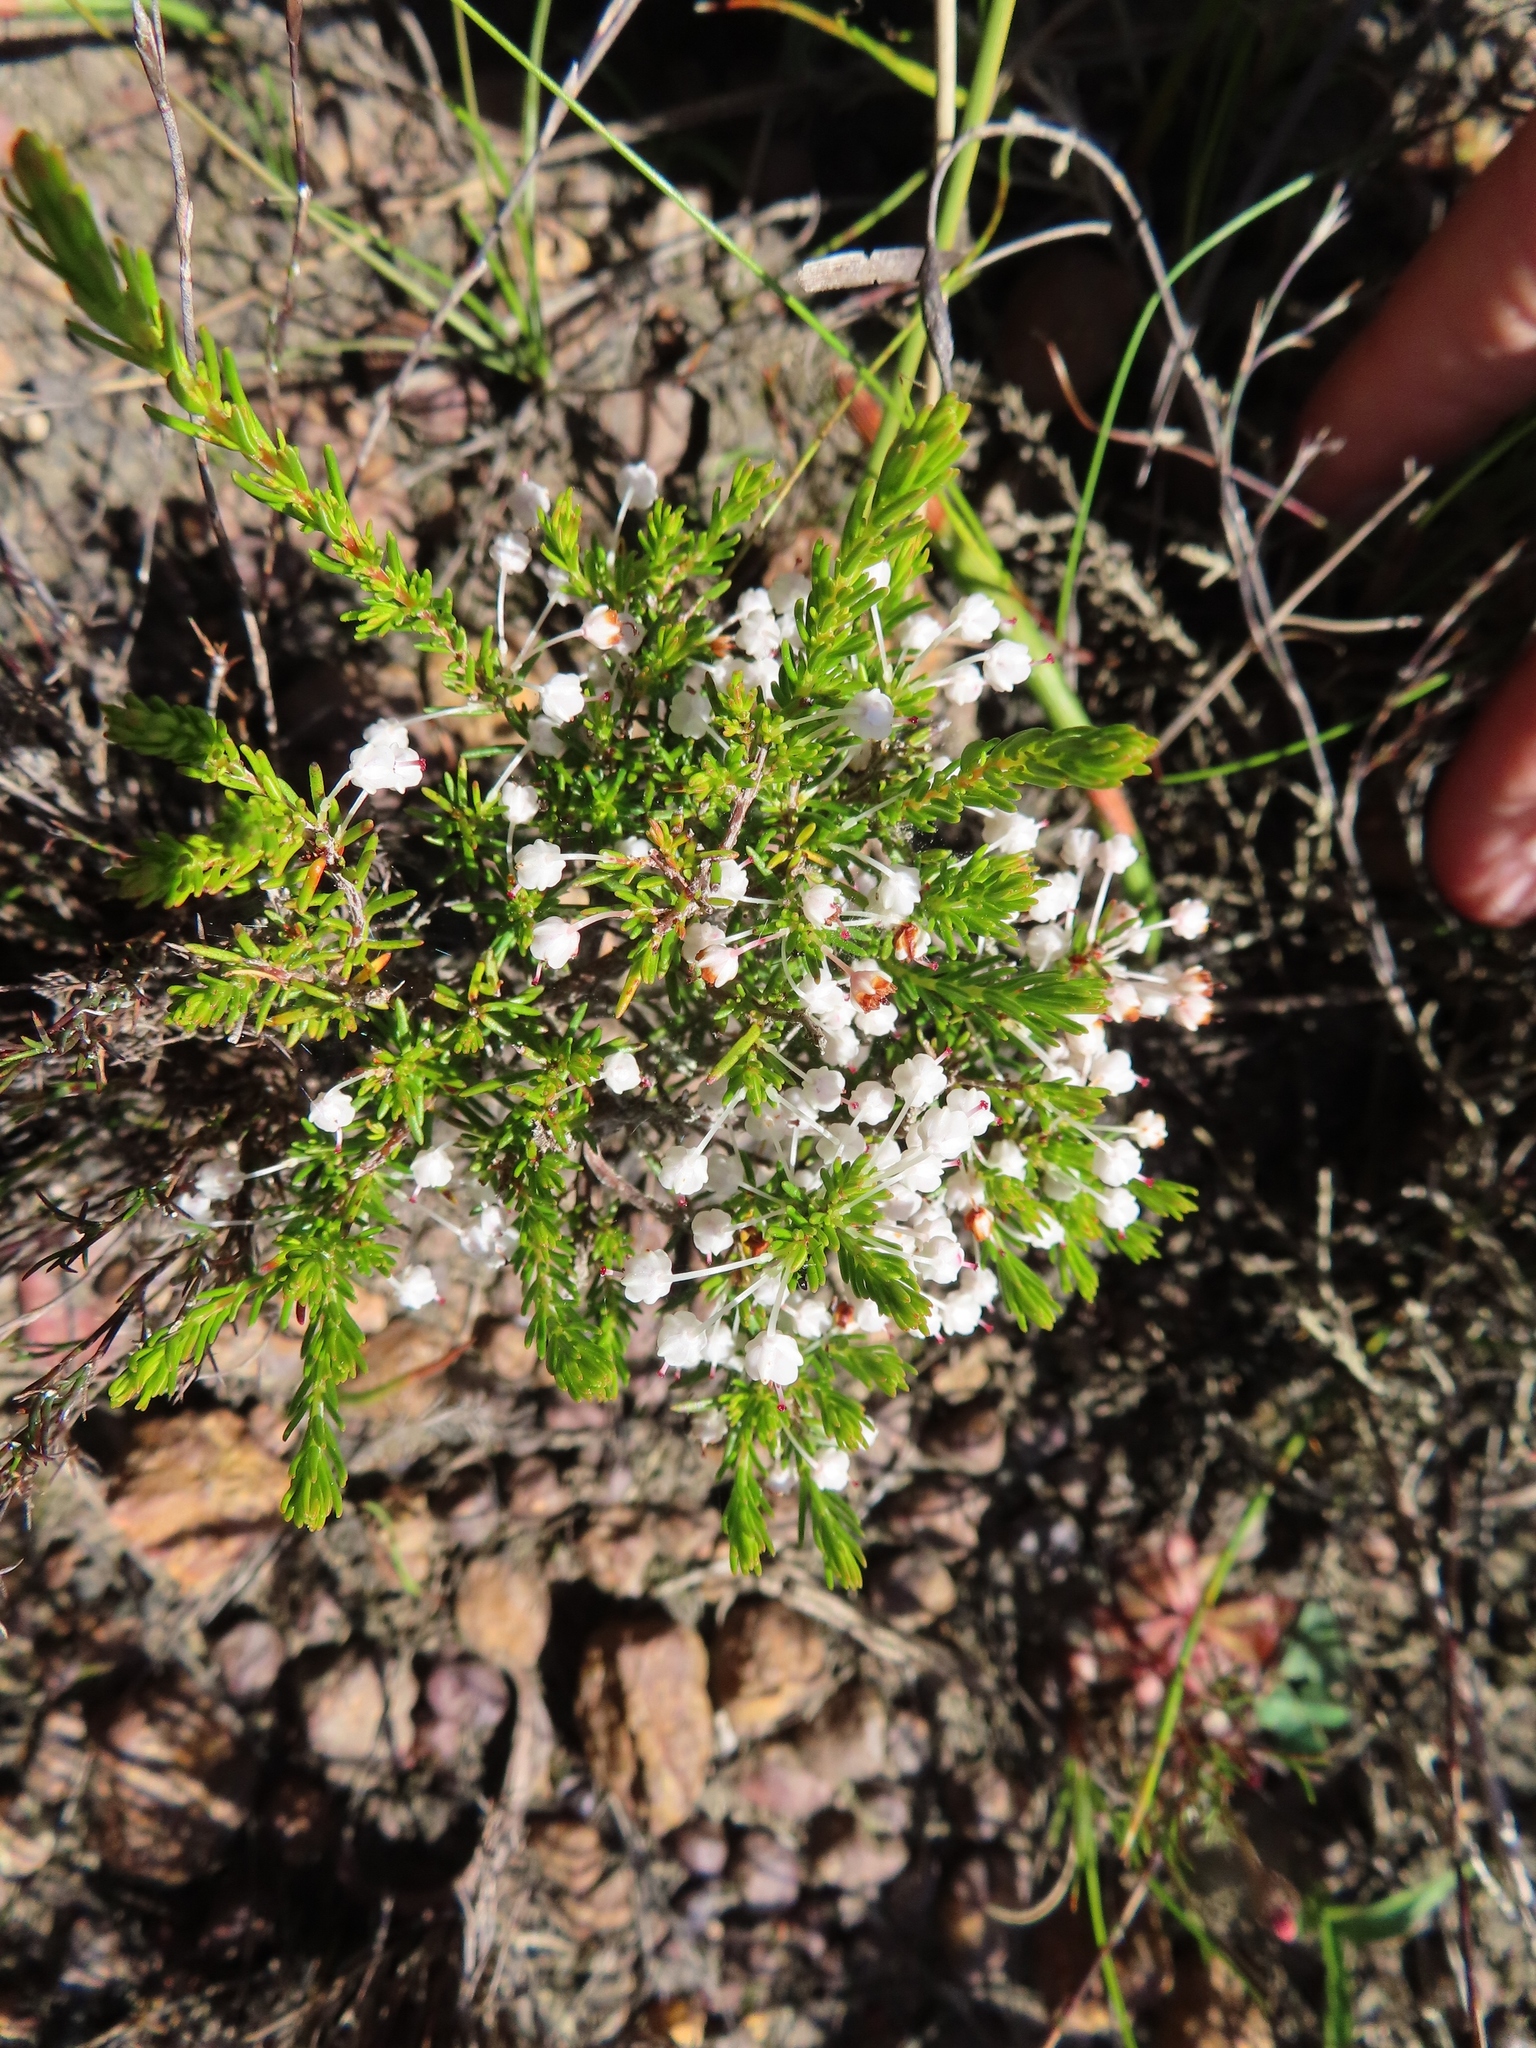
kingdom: Plantae
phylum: Tracheophyta
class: Magnoliopsida
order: Ericales
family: Ericaceae
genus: Erica
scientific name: Erica rubiginosa
